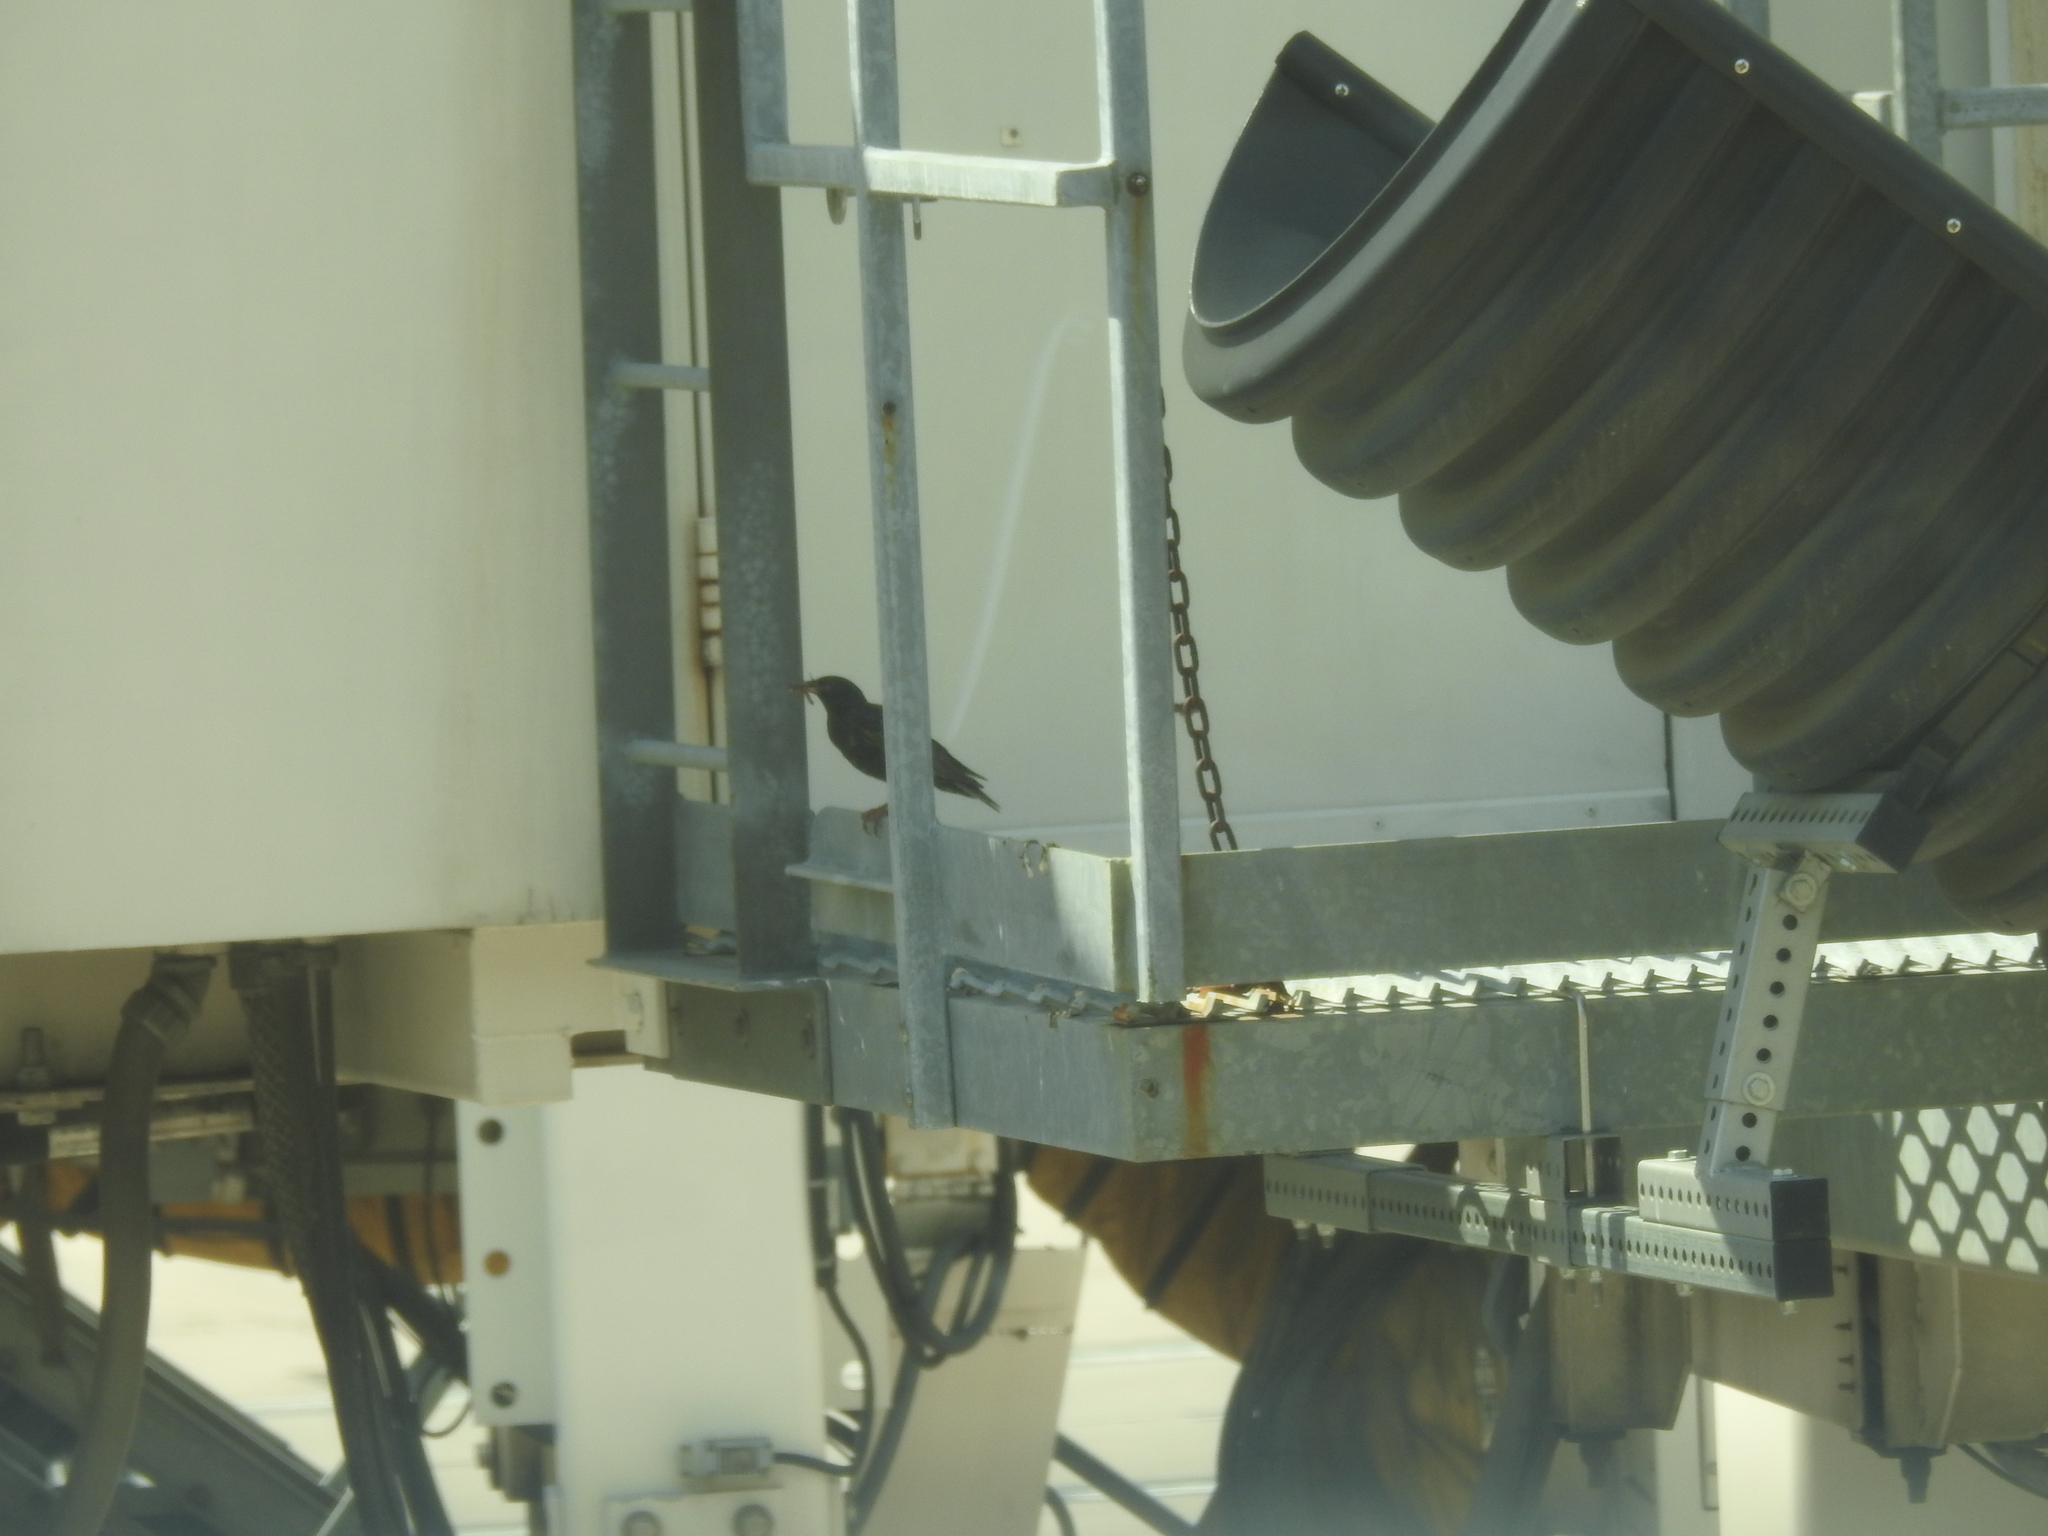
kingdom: Animalia
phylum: Chordata
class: Aves
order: Passeriformes
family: Sturnidae
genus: Sturnus
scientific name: Sturnus vulgaris
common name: Common starling
